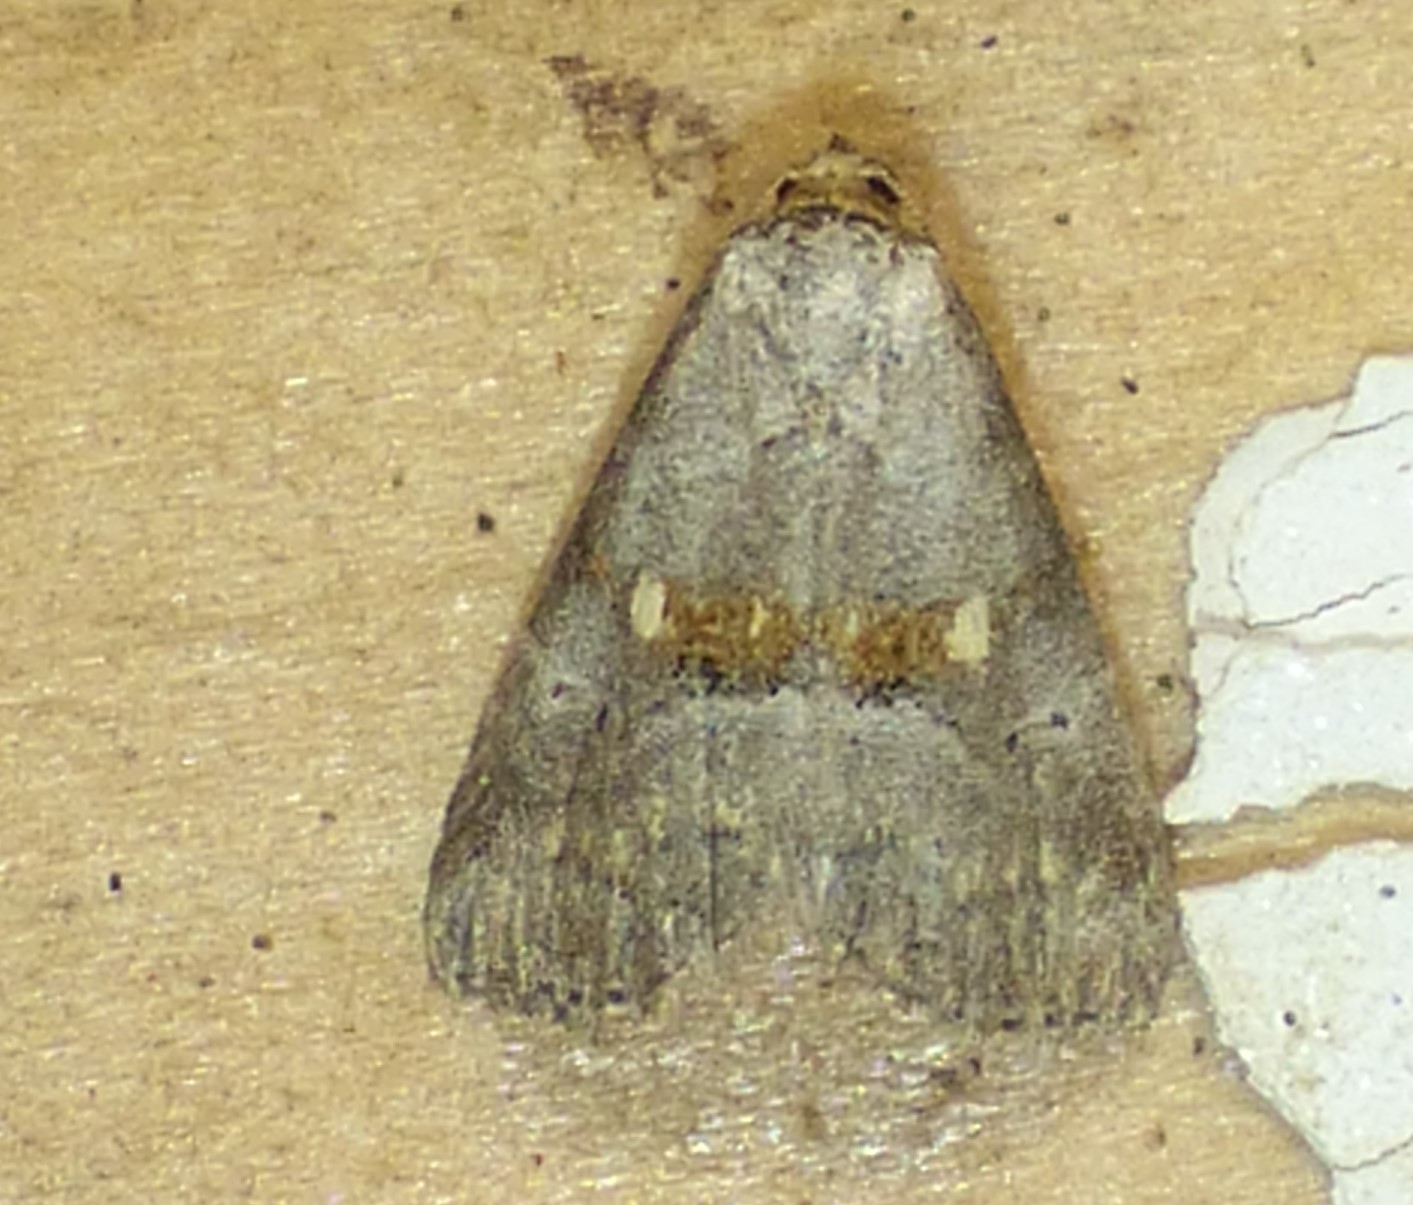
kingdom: Animalia
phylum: Arthropoda
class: Insecta
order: Lepidoptera
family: Erebidae
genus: Hyperstrotia
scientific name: Hyperstrotia flaviguttata
